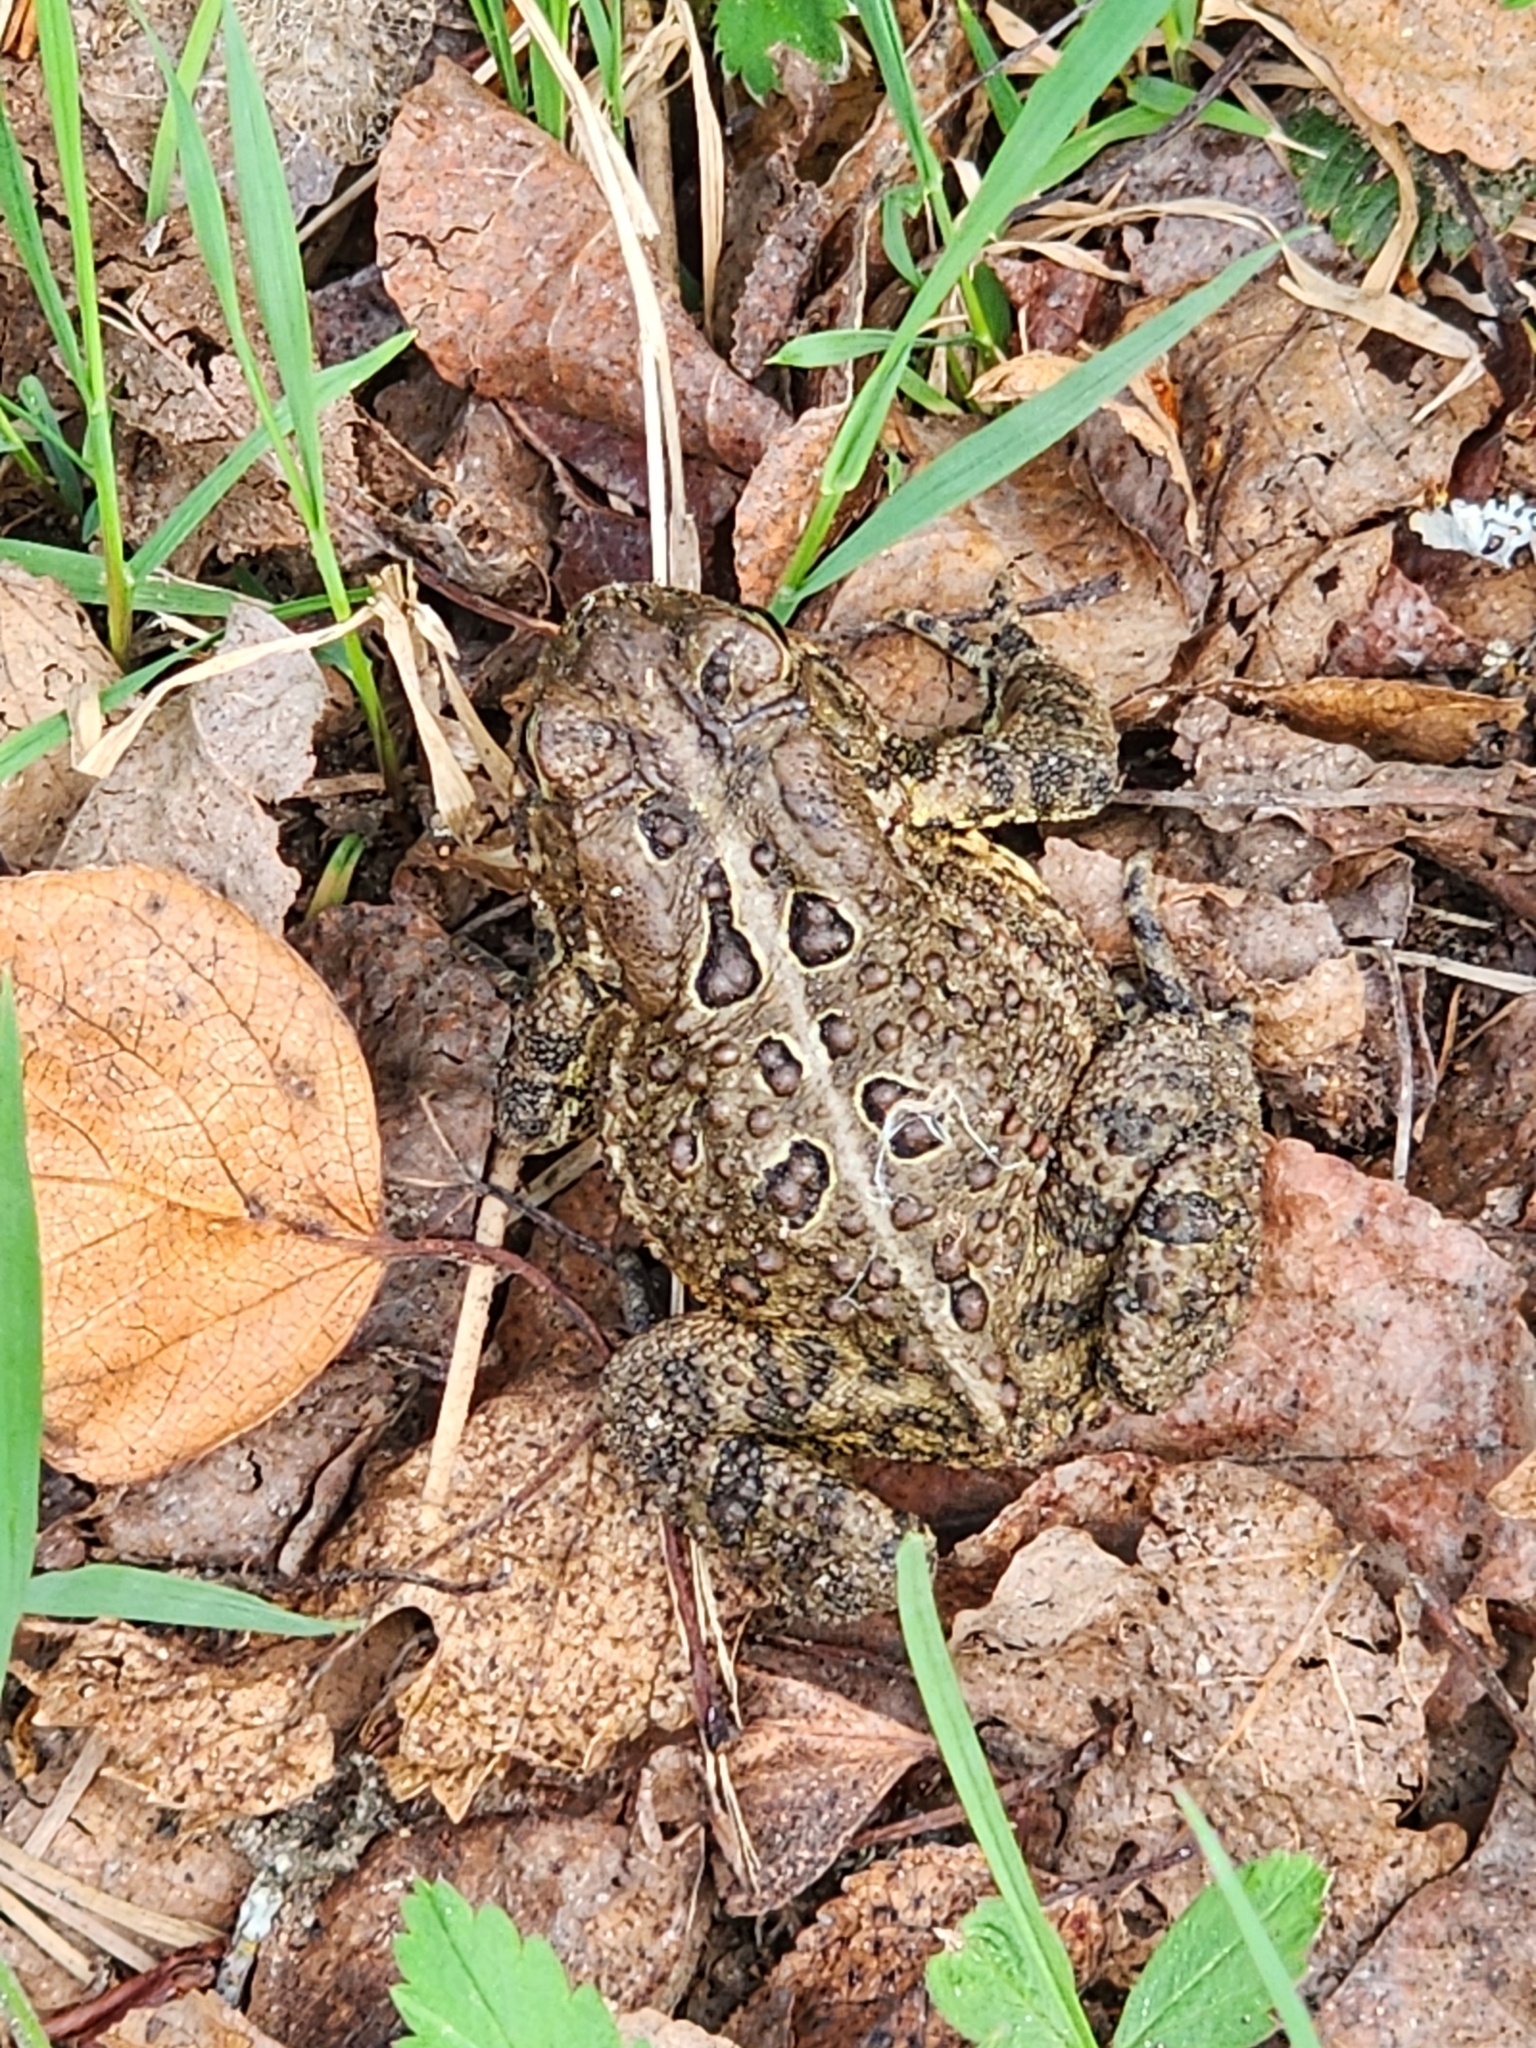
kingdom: Animalia
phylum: Chordata
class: Amphibia
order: Anura
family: Bufonidae
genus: Anaxyrus
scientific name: Anaxyrus americanus
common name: American toad
